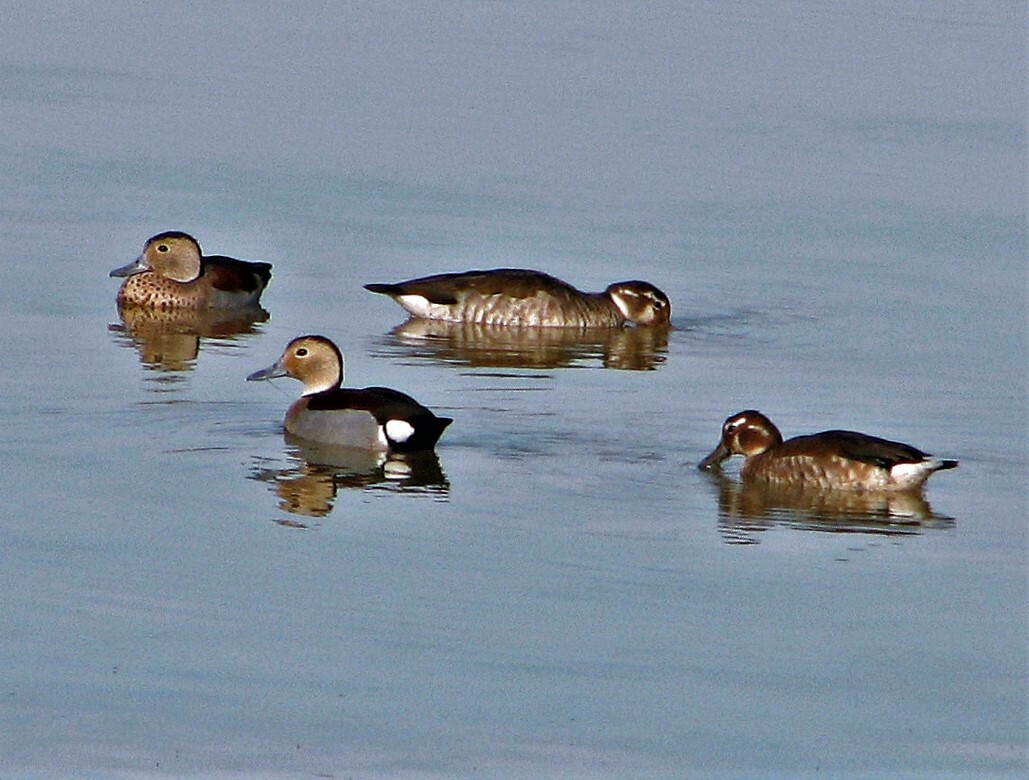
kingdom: Animalia
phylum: Chordata
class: Aves
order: Anseriformes
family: Anatidae
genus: Callonetta
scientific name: Callonetta leucophrys
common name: Ringed teal
